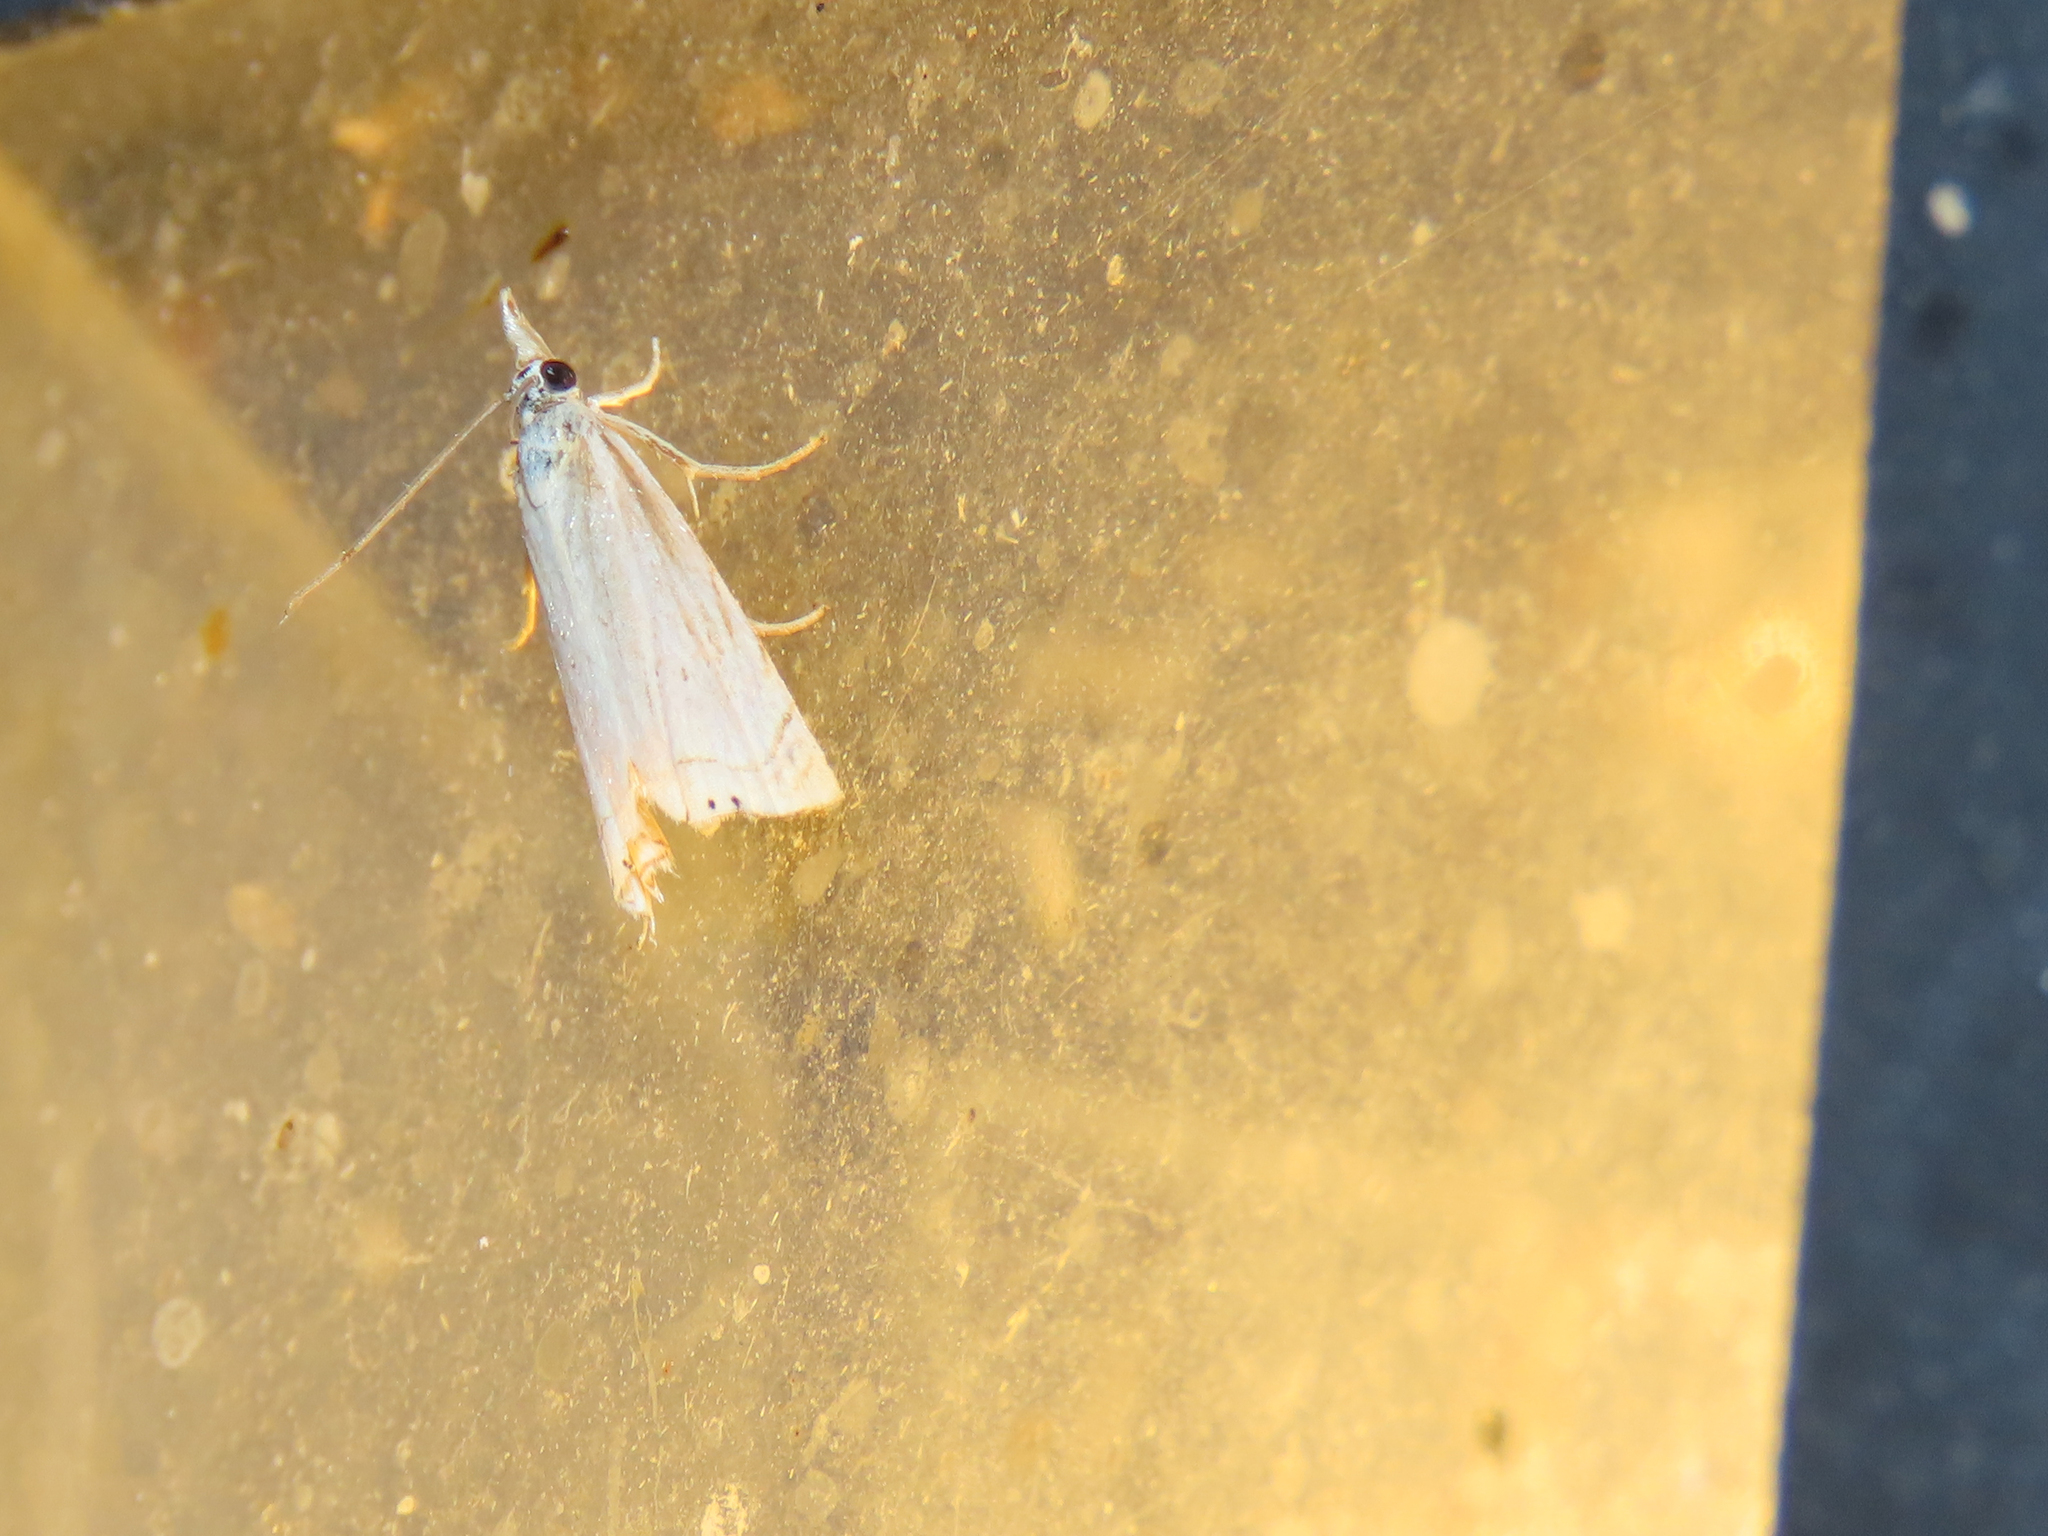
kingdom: Animalia
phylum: Arthropoda
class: Insecta
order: Lepidoptera
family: Crambidae
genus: Chrysoteuchia
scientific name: Chrysoteuchia topiarius
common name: Topiary grass-veneer
